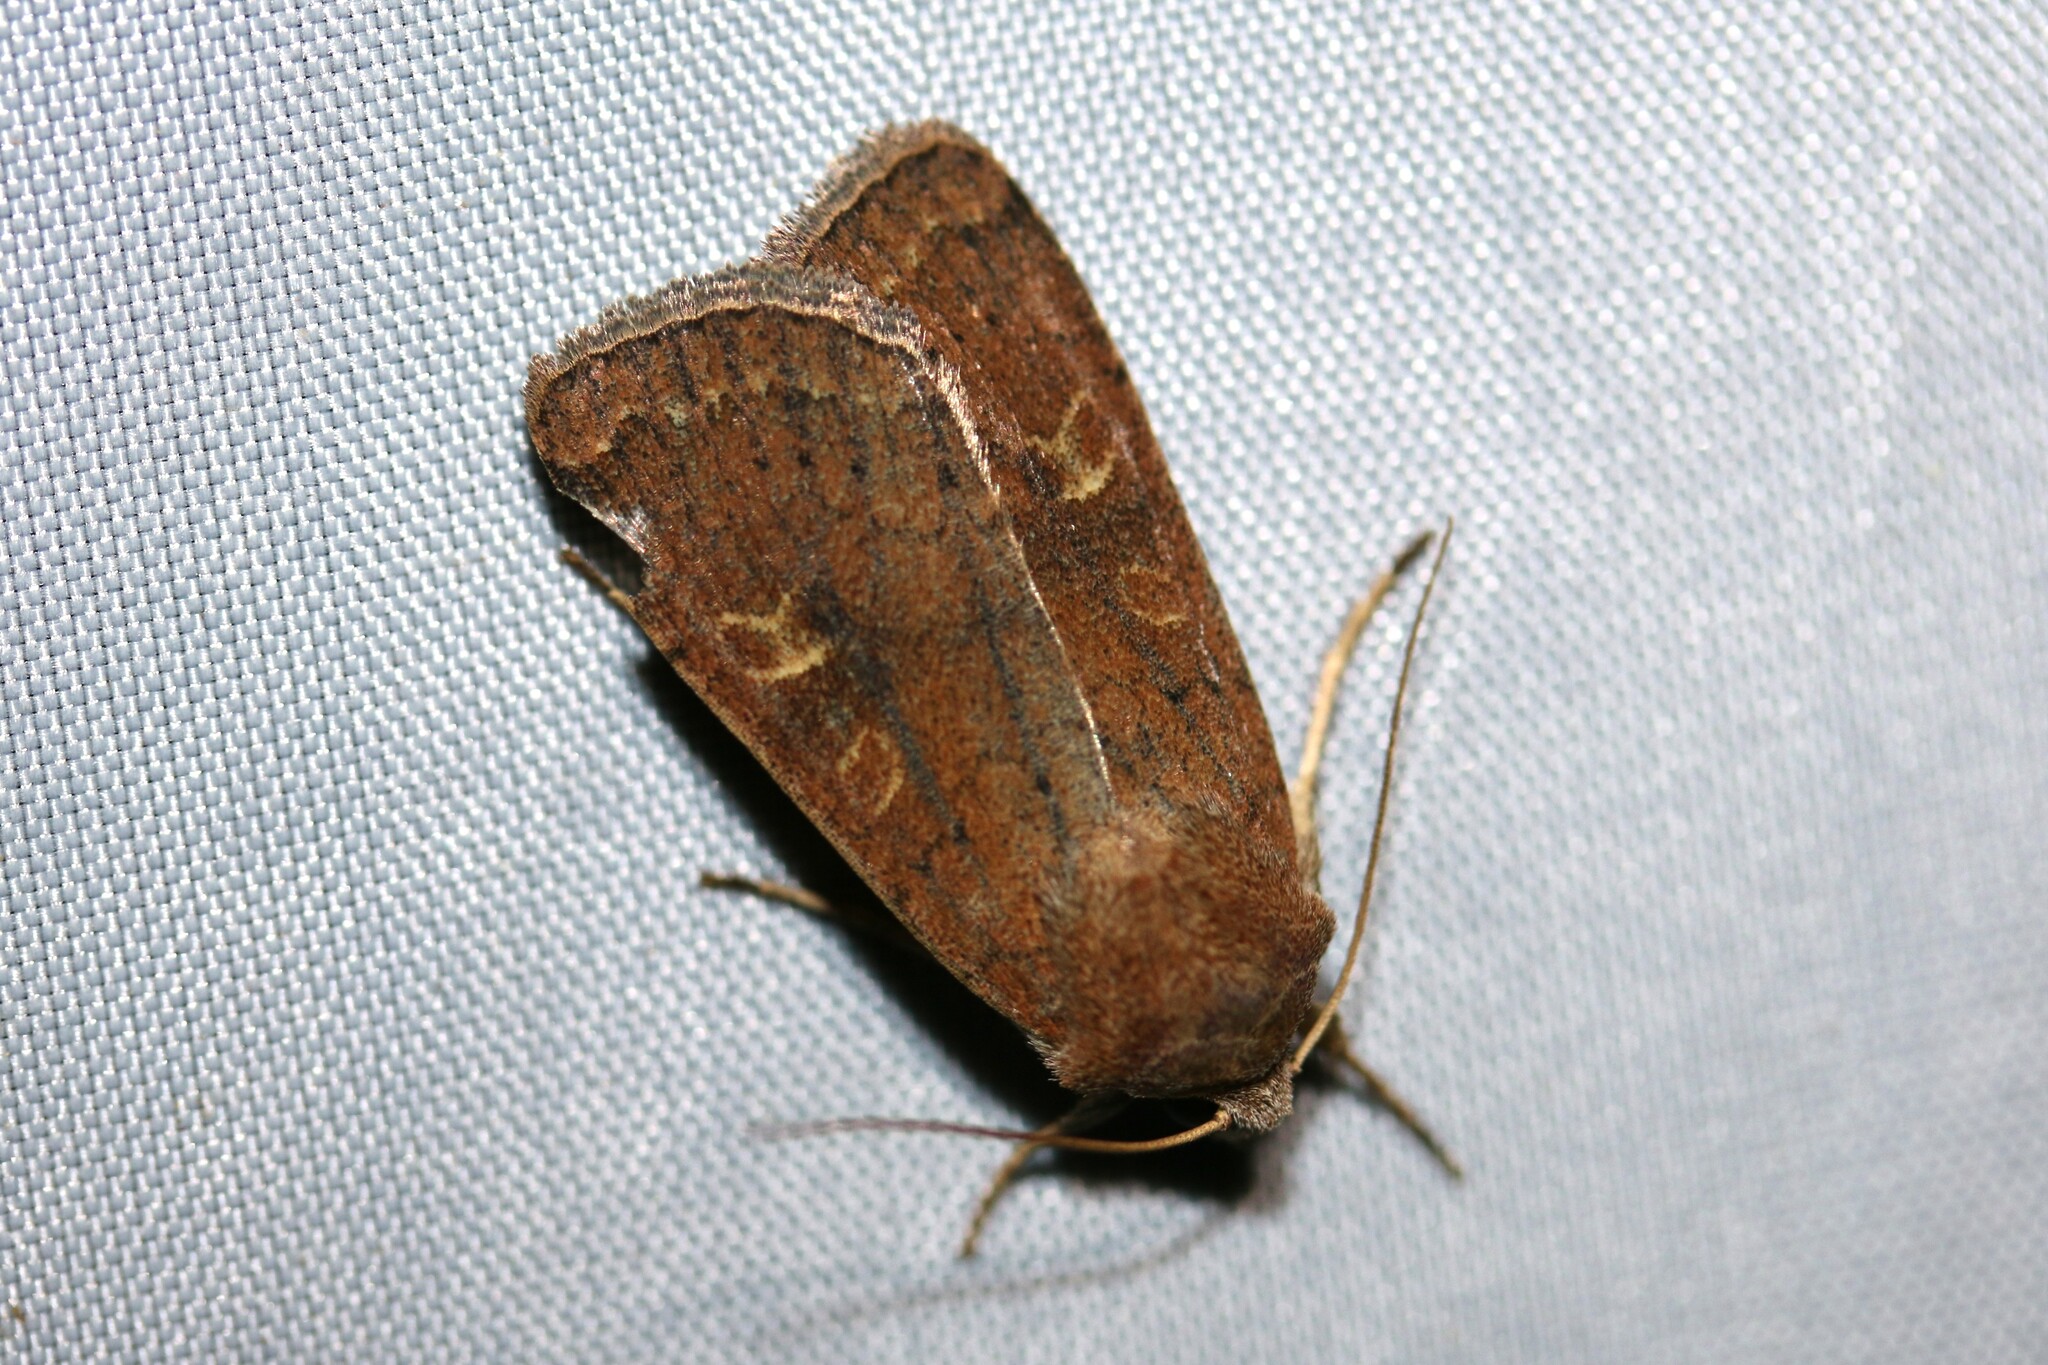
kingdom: Animalia
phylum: Arthropoda
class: Insecta
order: Lepidoptera
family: Noctuidae
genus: Xestia
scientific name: Xestia xanthographa
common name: Square-spot rustic
